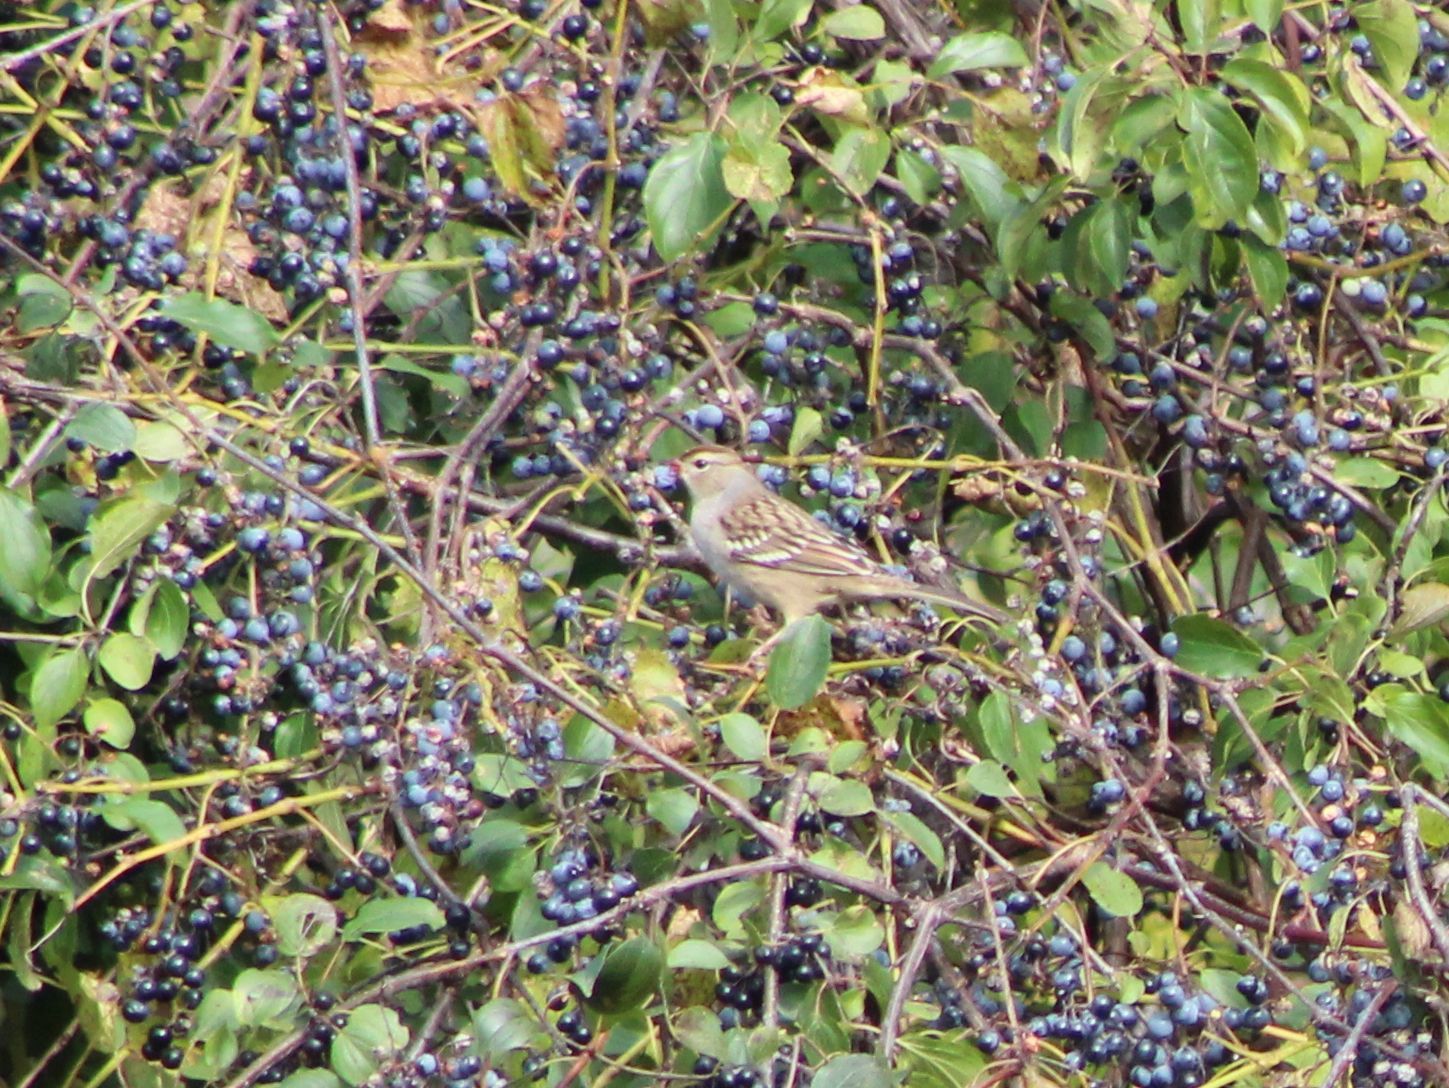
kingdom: Animalia
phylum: Chordata
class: Aves
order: Passeriformes
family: Passerellidae
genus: Zonotrichia
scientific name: Zonotrichia leucophrys
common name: White-crowned sparrow
